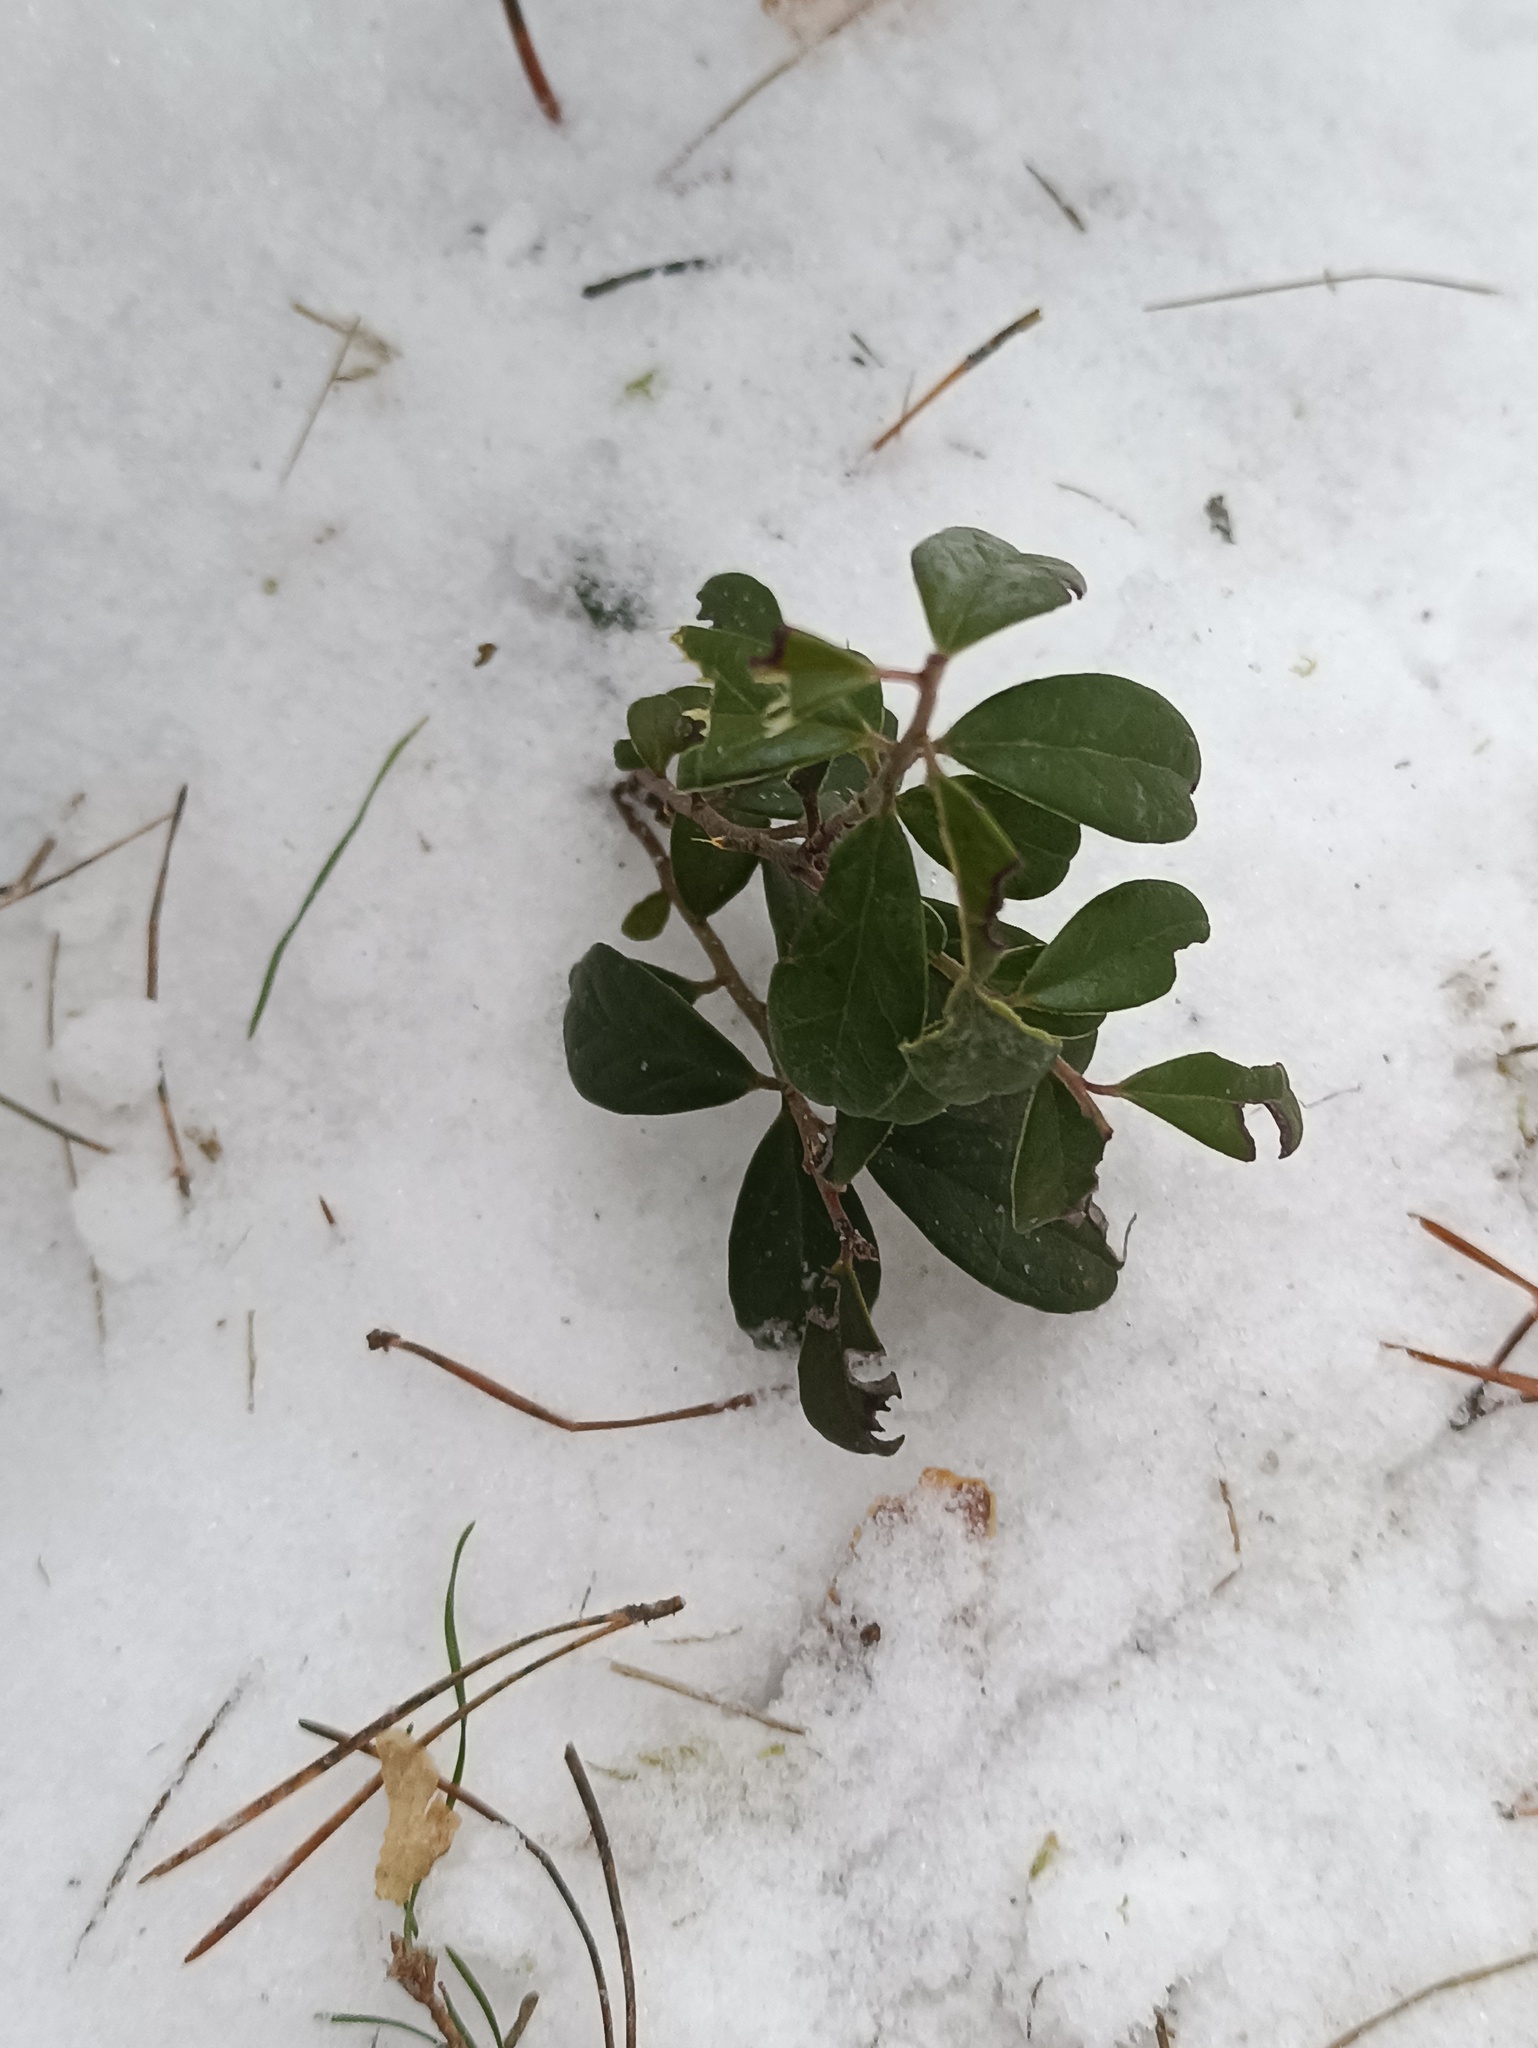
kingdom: Plantae
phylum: Tracheophyta
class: Magnoliopsida
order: Ericales
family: Ericaceae
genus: Vaccinium
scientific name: Vaccinium vitis-idaea
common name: Cowberry
